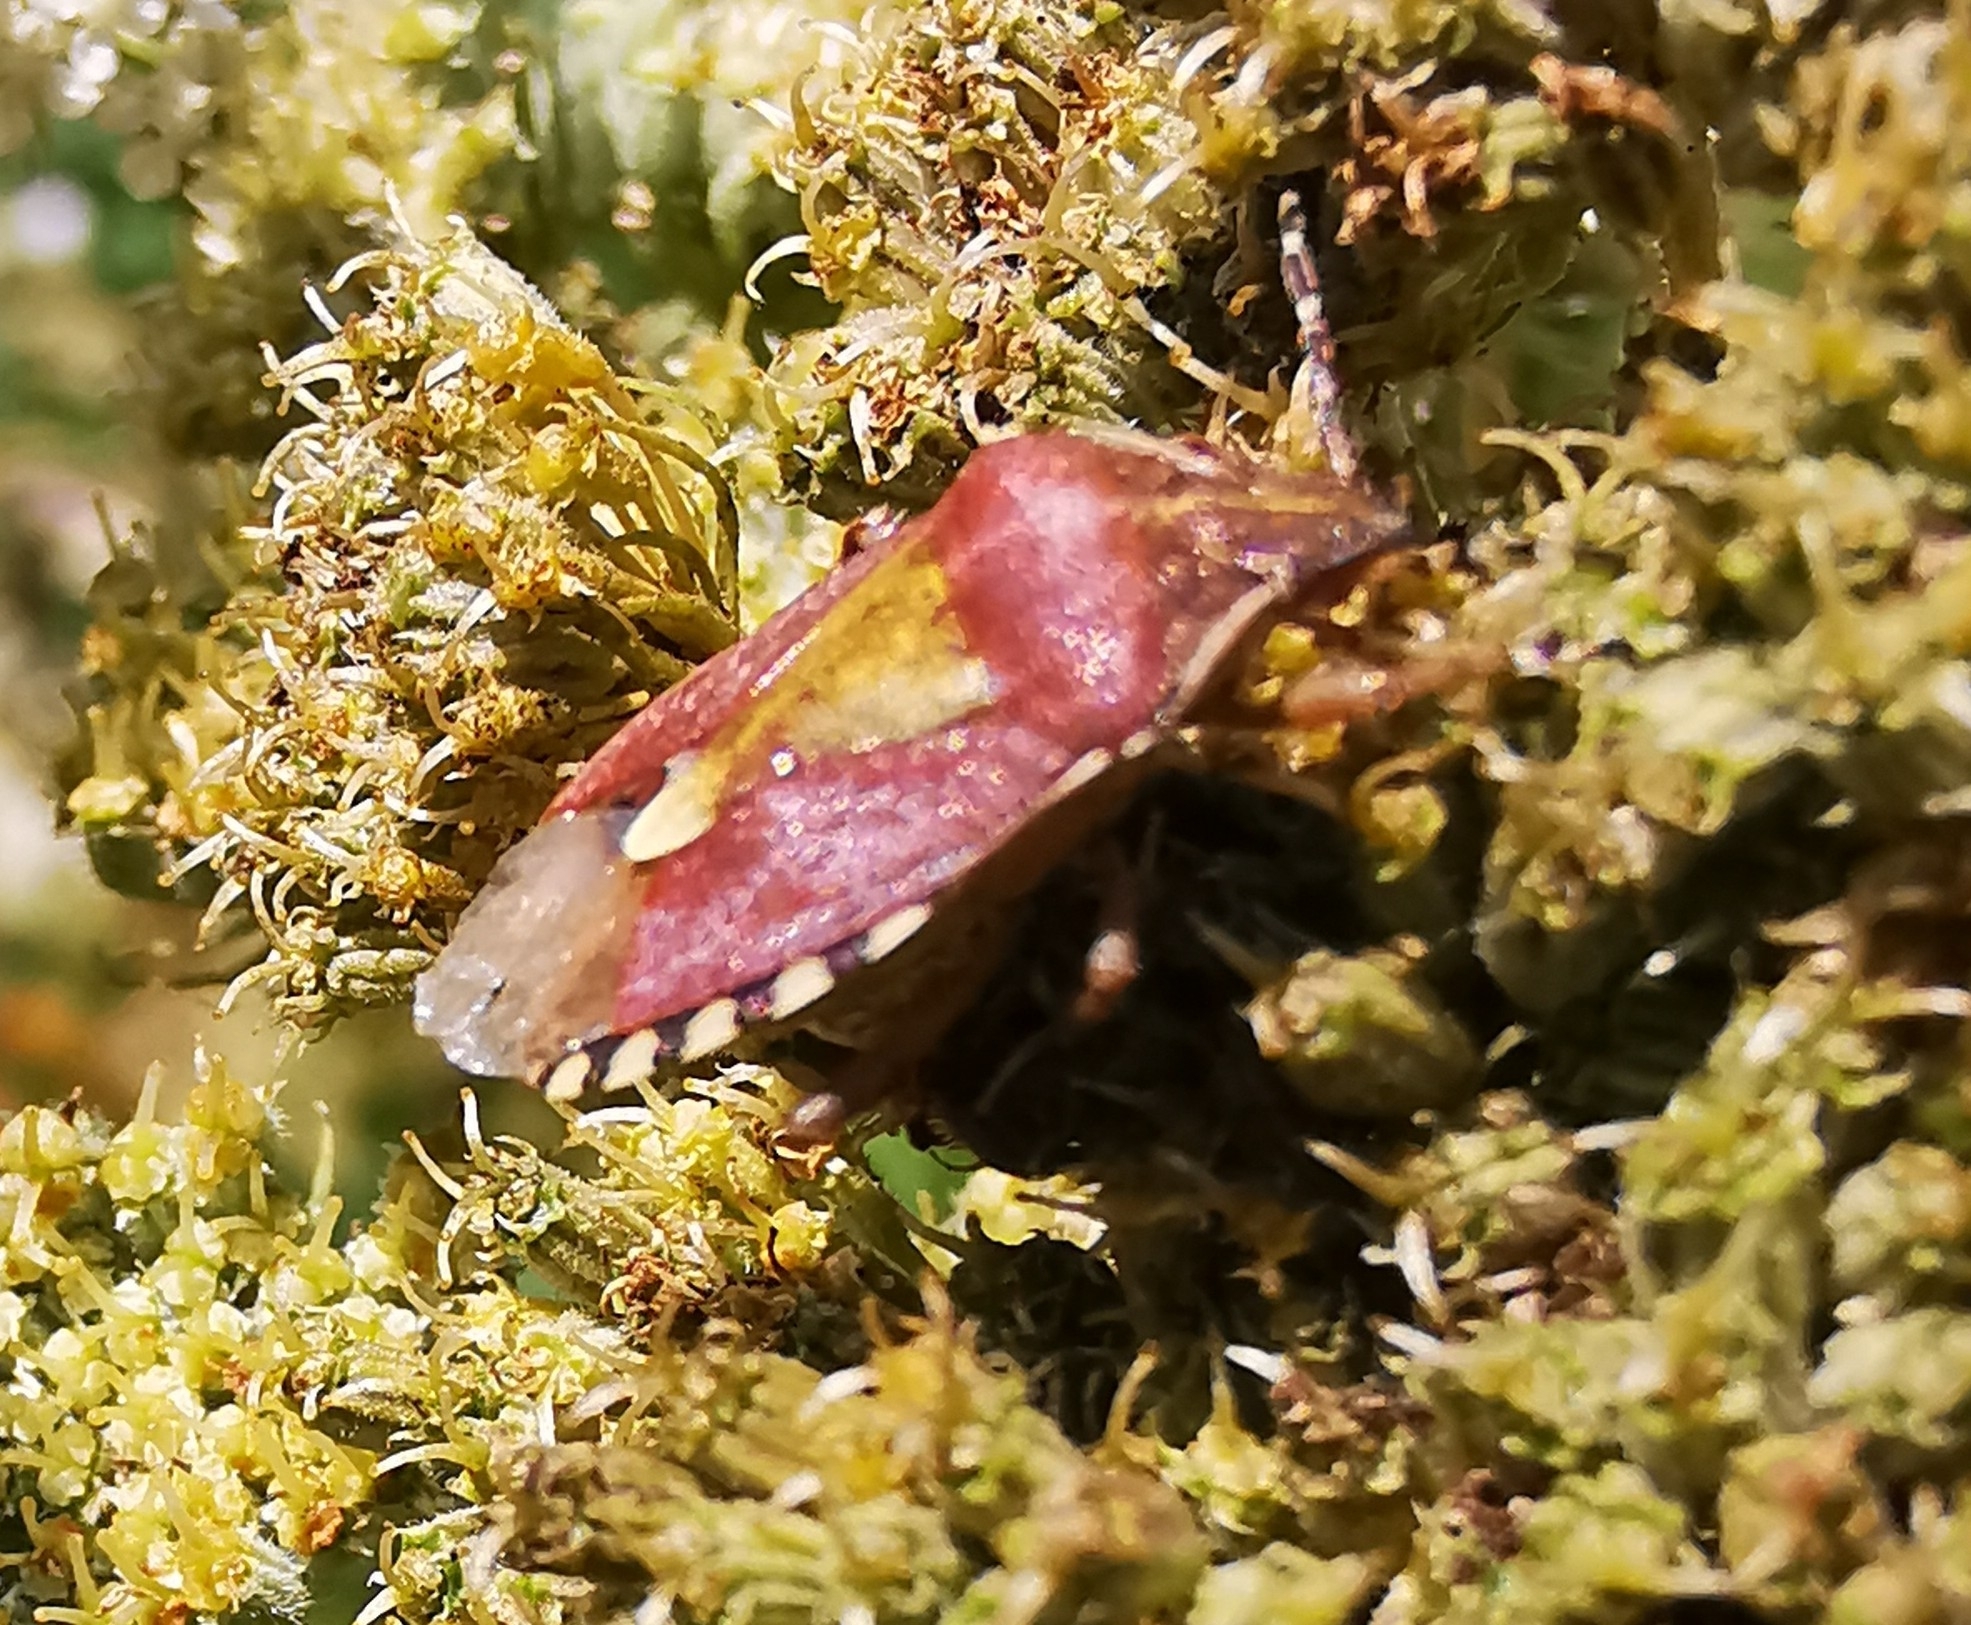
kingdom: Animalia
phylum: Arthropoda
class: Insecta
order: Hemiptera
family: Pentatomidae
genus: Dolycoris
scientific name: Dolycoris baccarum
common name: Sloe bug
